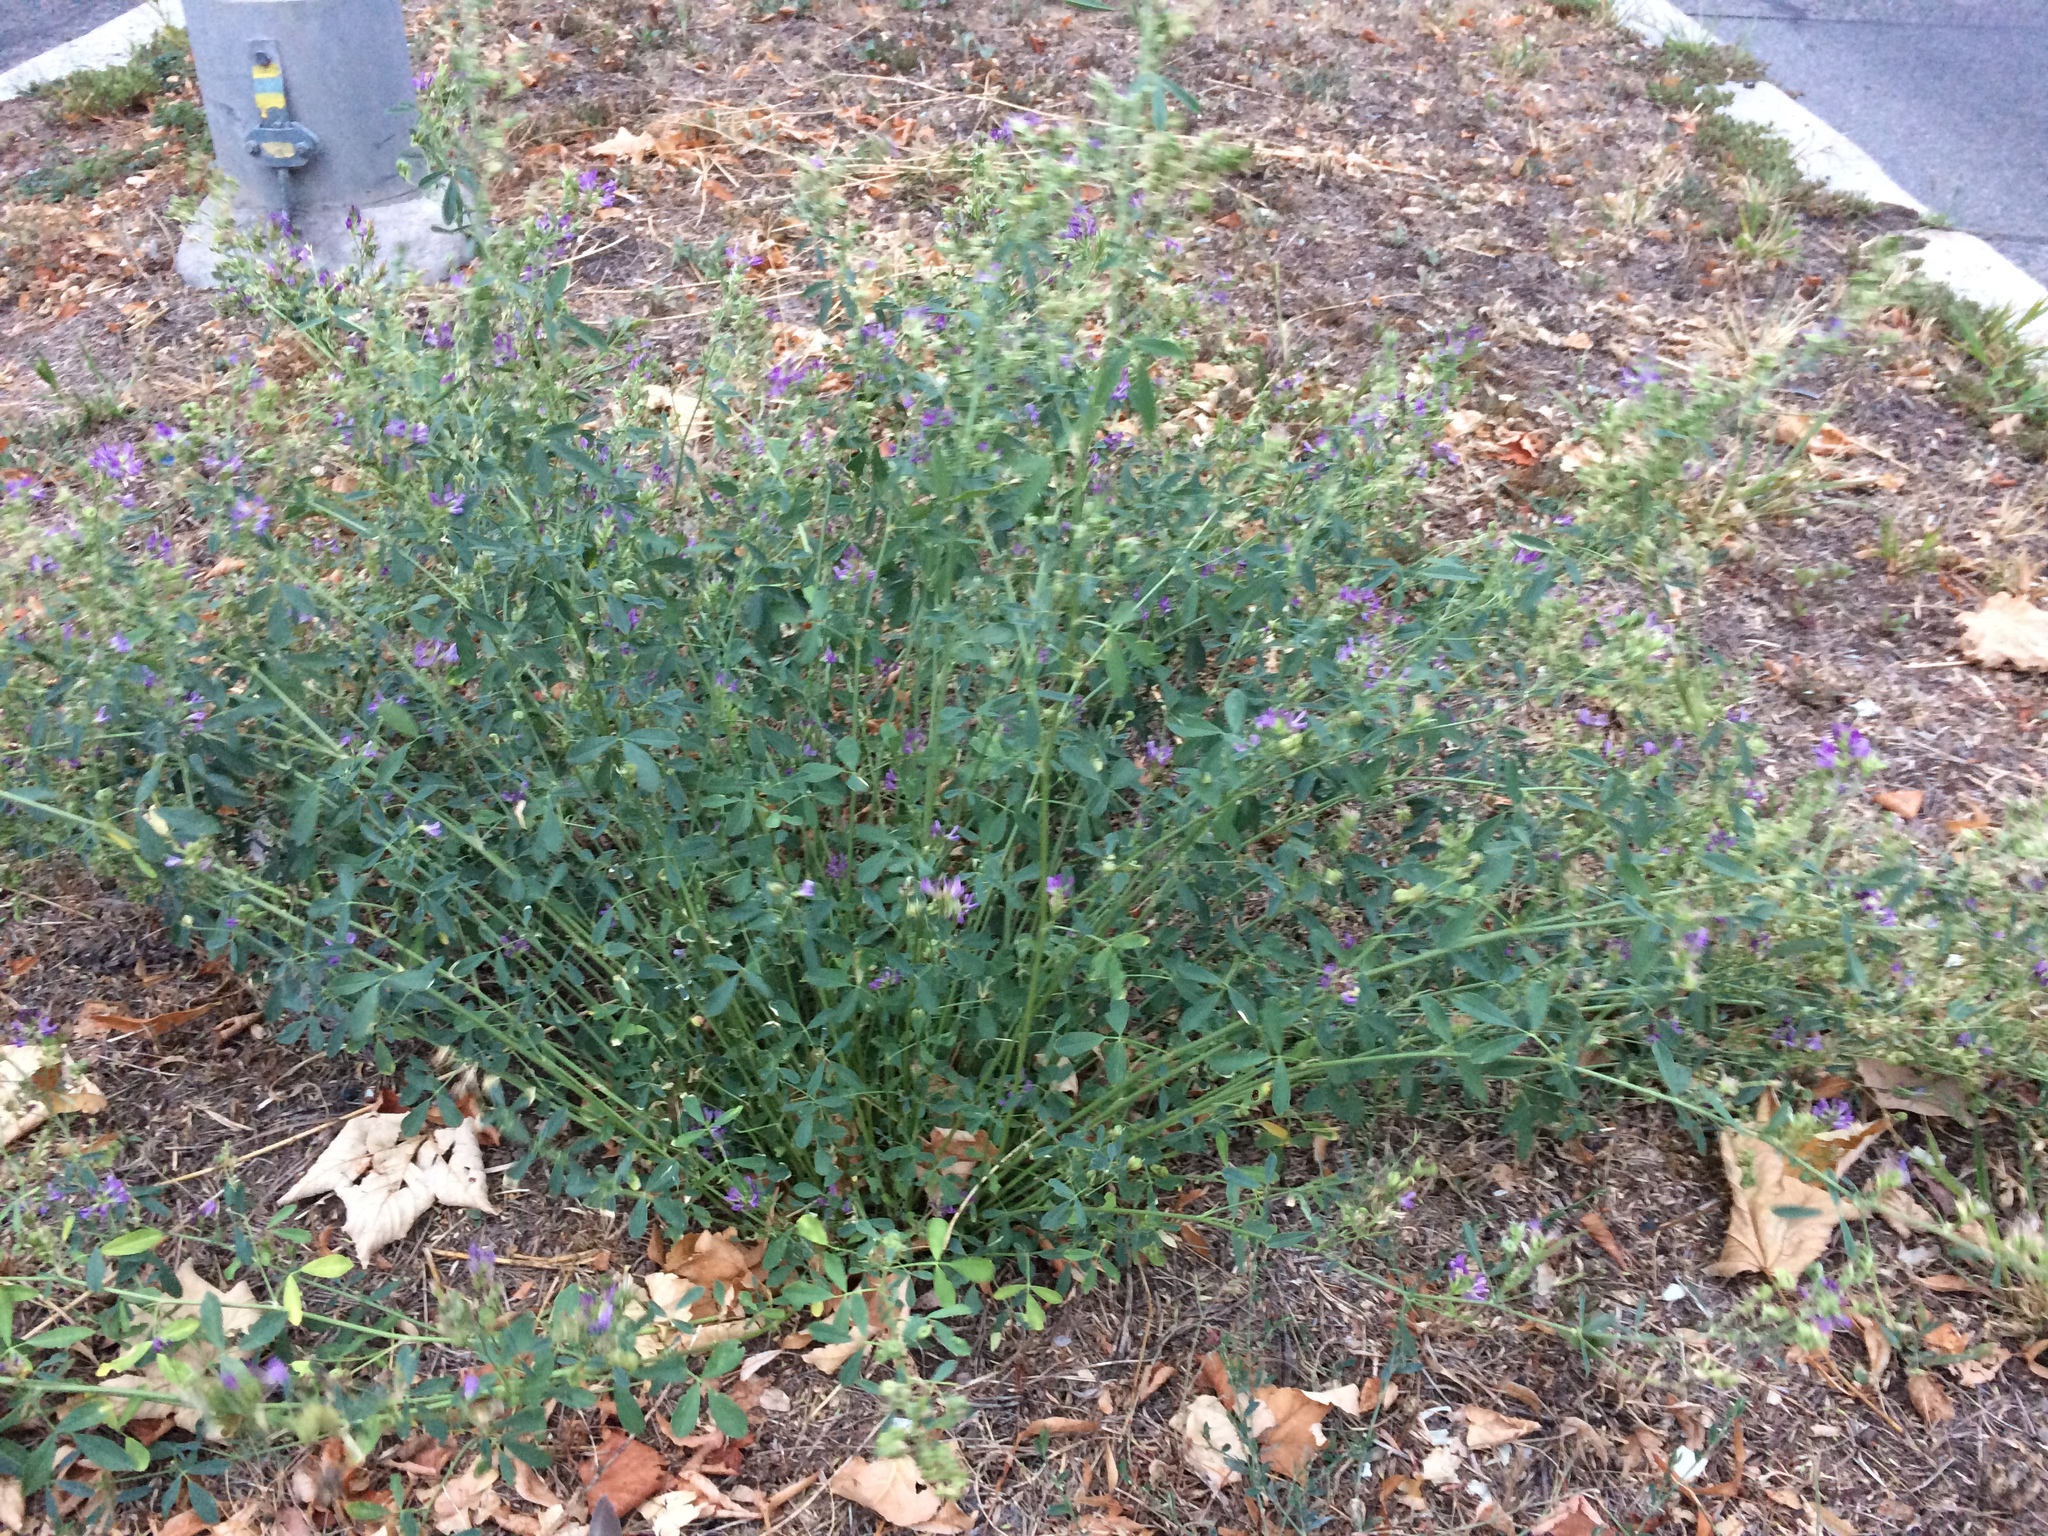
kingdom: Plantae
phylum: Tracheophyta
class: Magnoliopsida
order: Fabales
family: Fabaceae
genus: Medicago
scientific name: Medicago sativa
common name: Alfalfa
